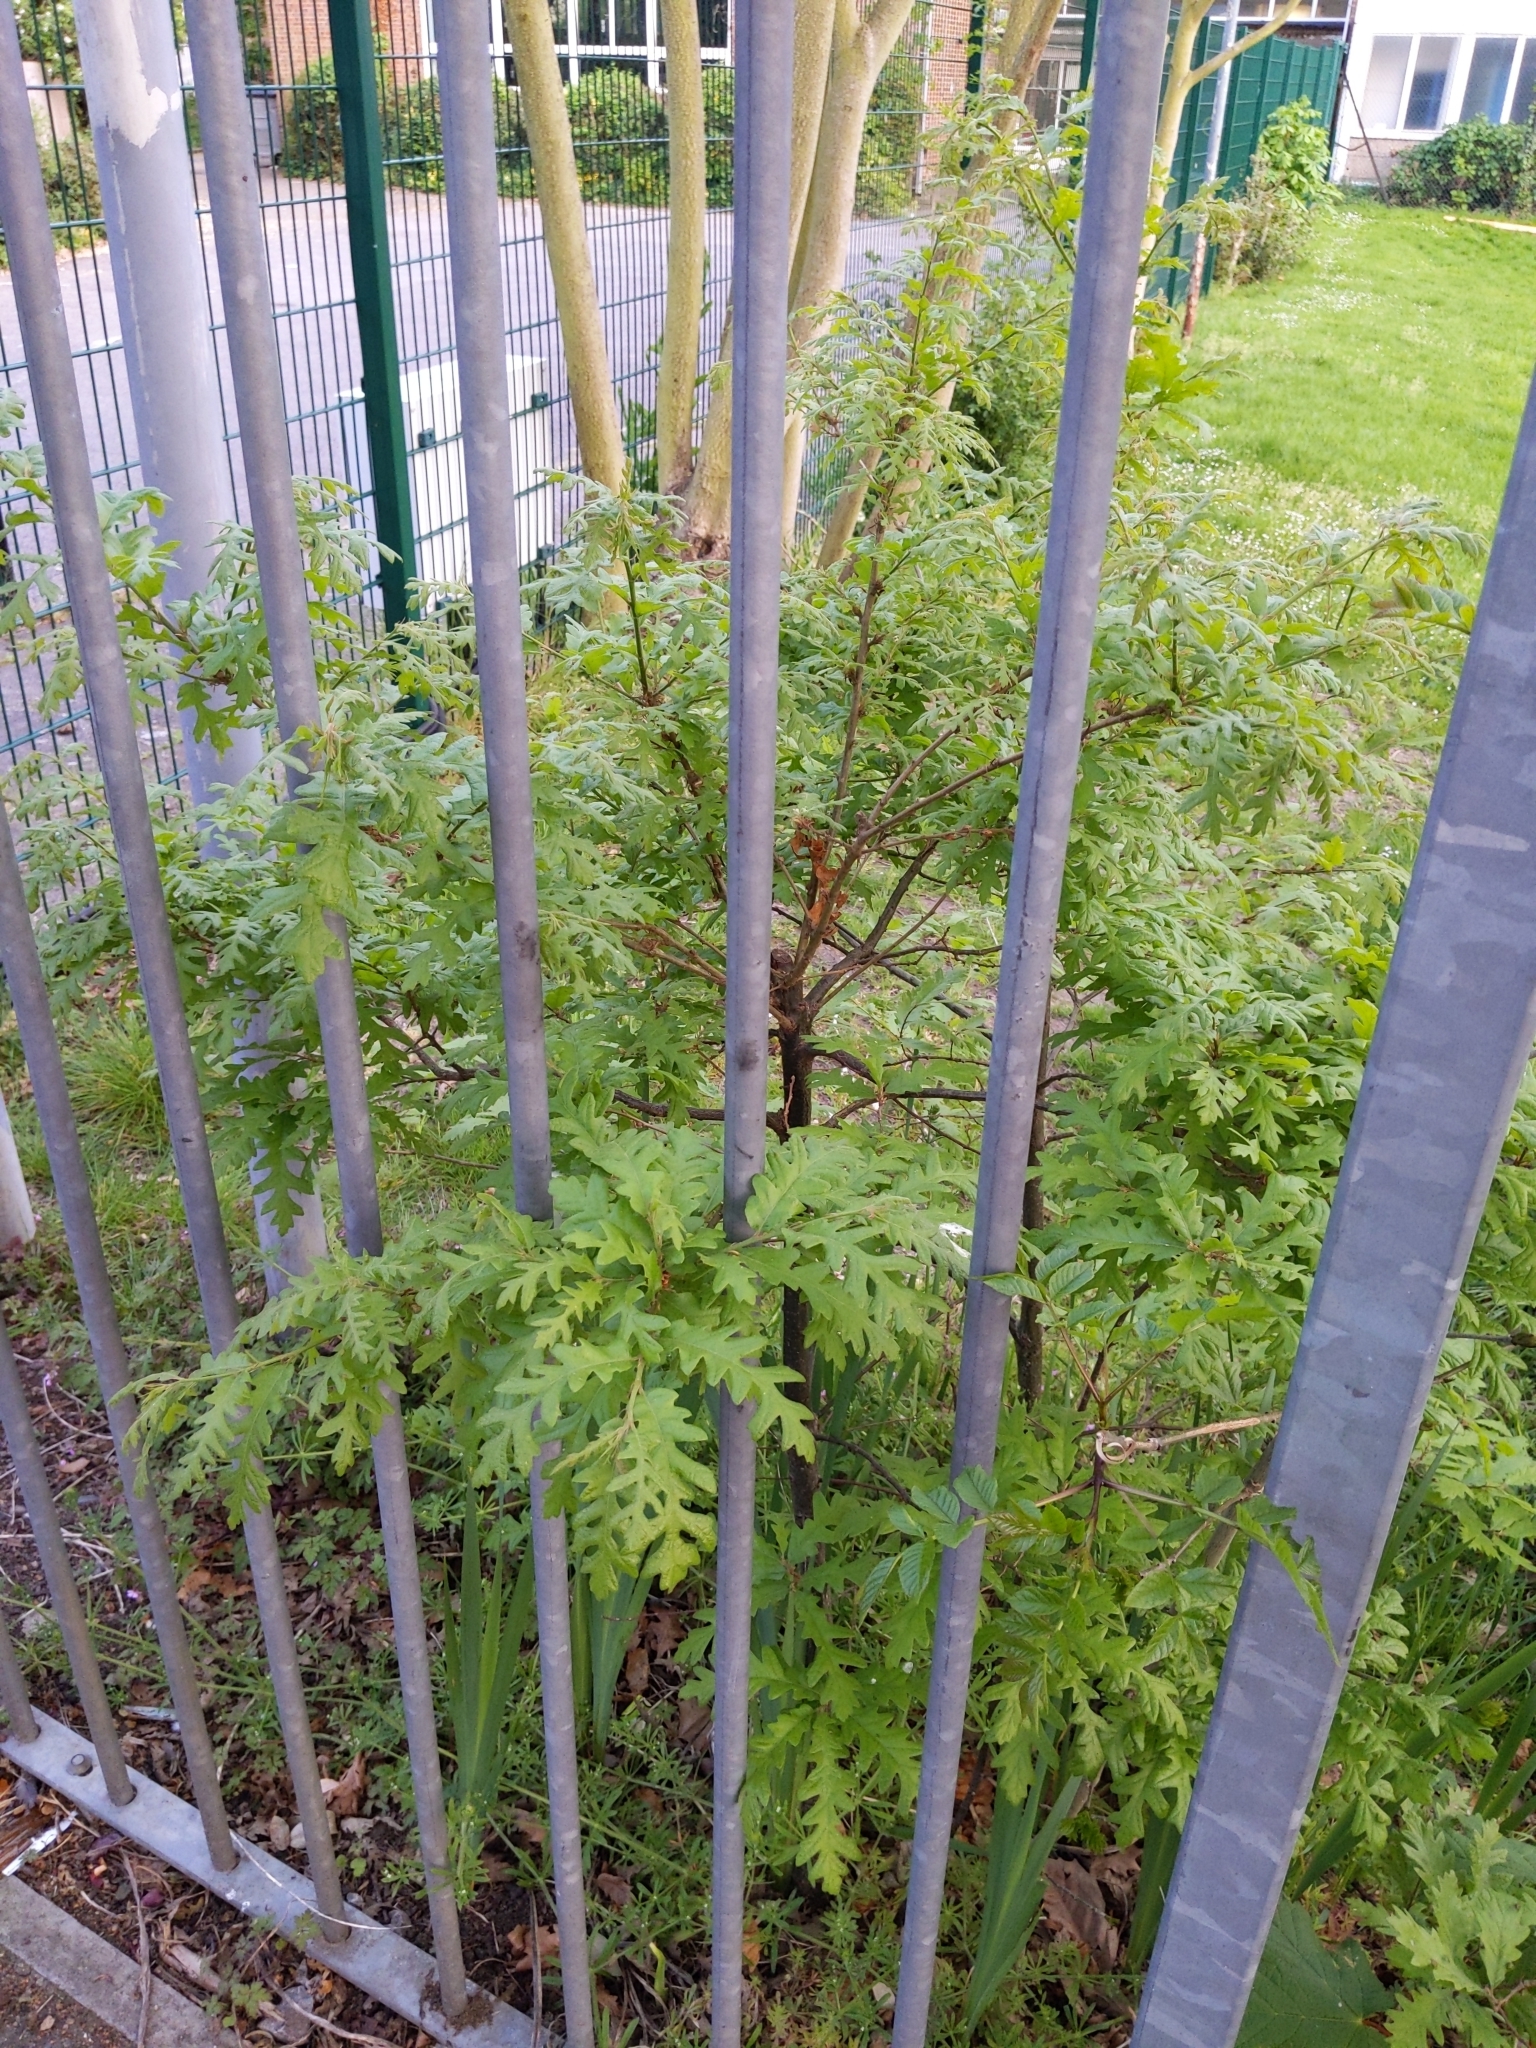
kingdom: Plantae
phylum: Tracheophyta
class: Magnoliopsida
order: Fagales
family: Fagaceae
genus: Quercus
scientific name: Quercus cerris
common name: Turkey oak
